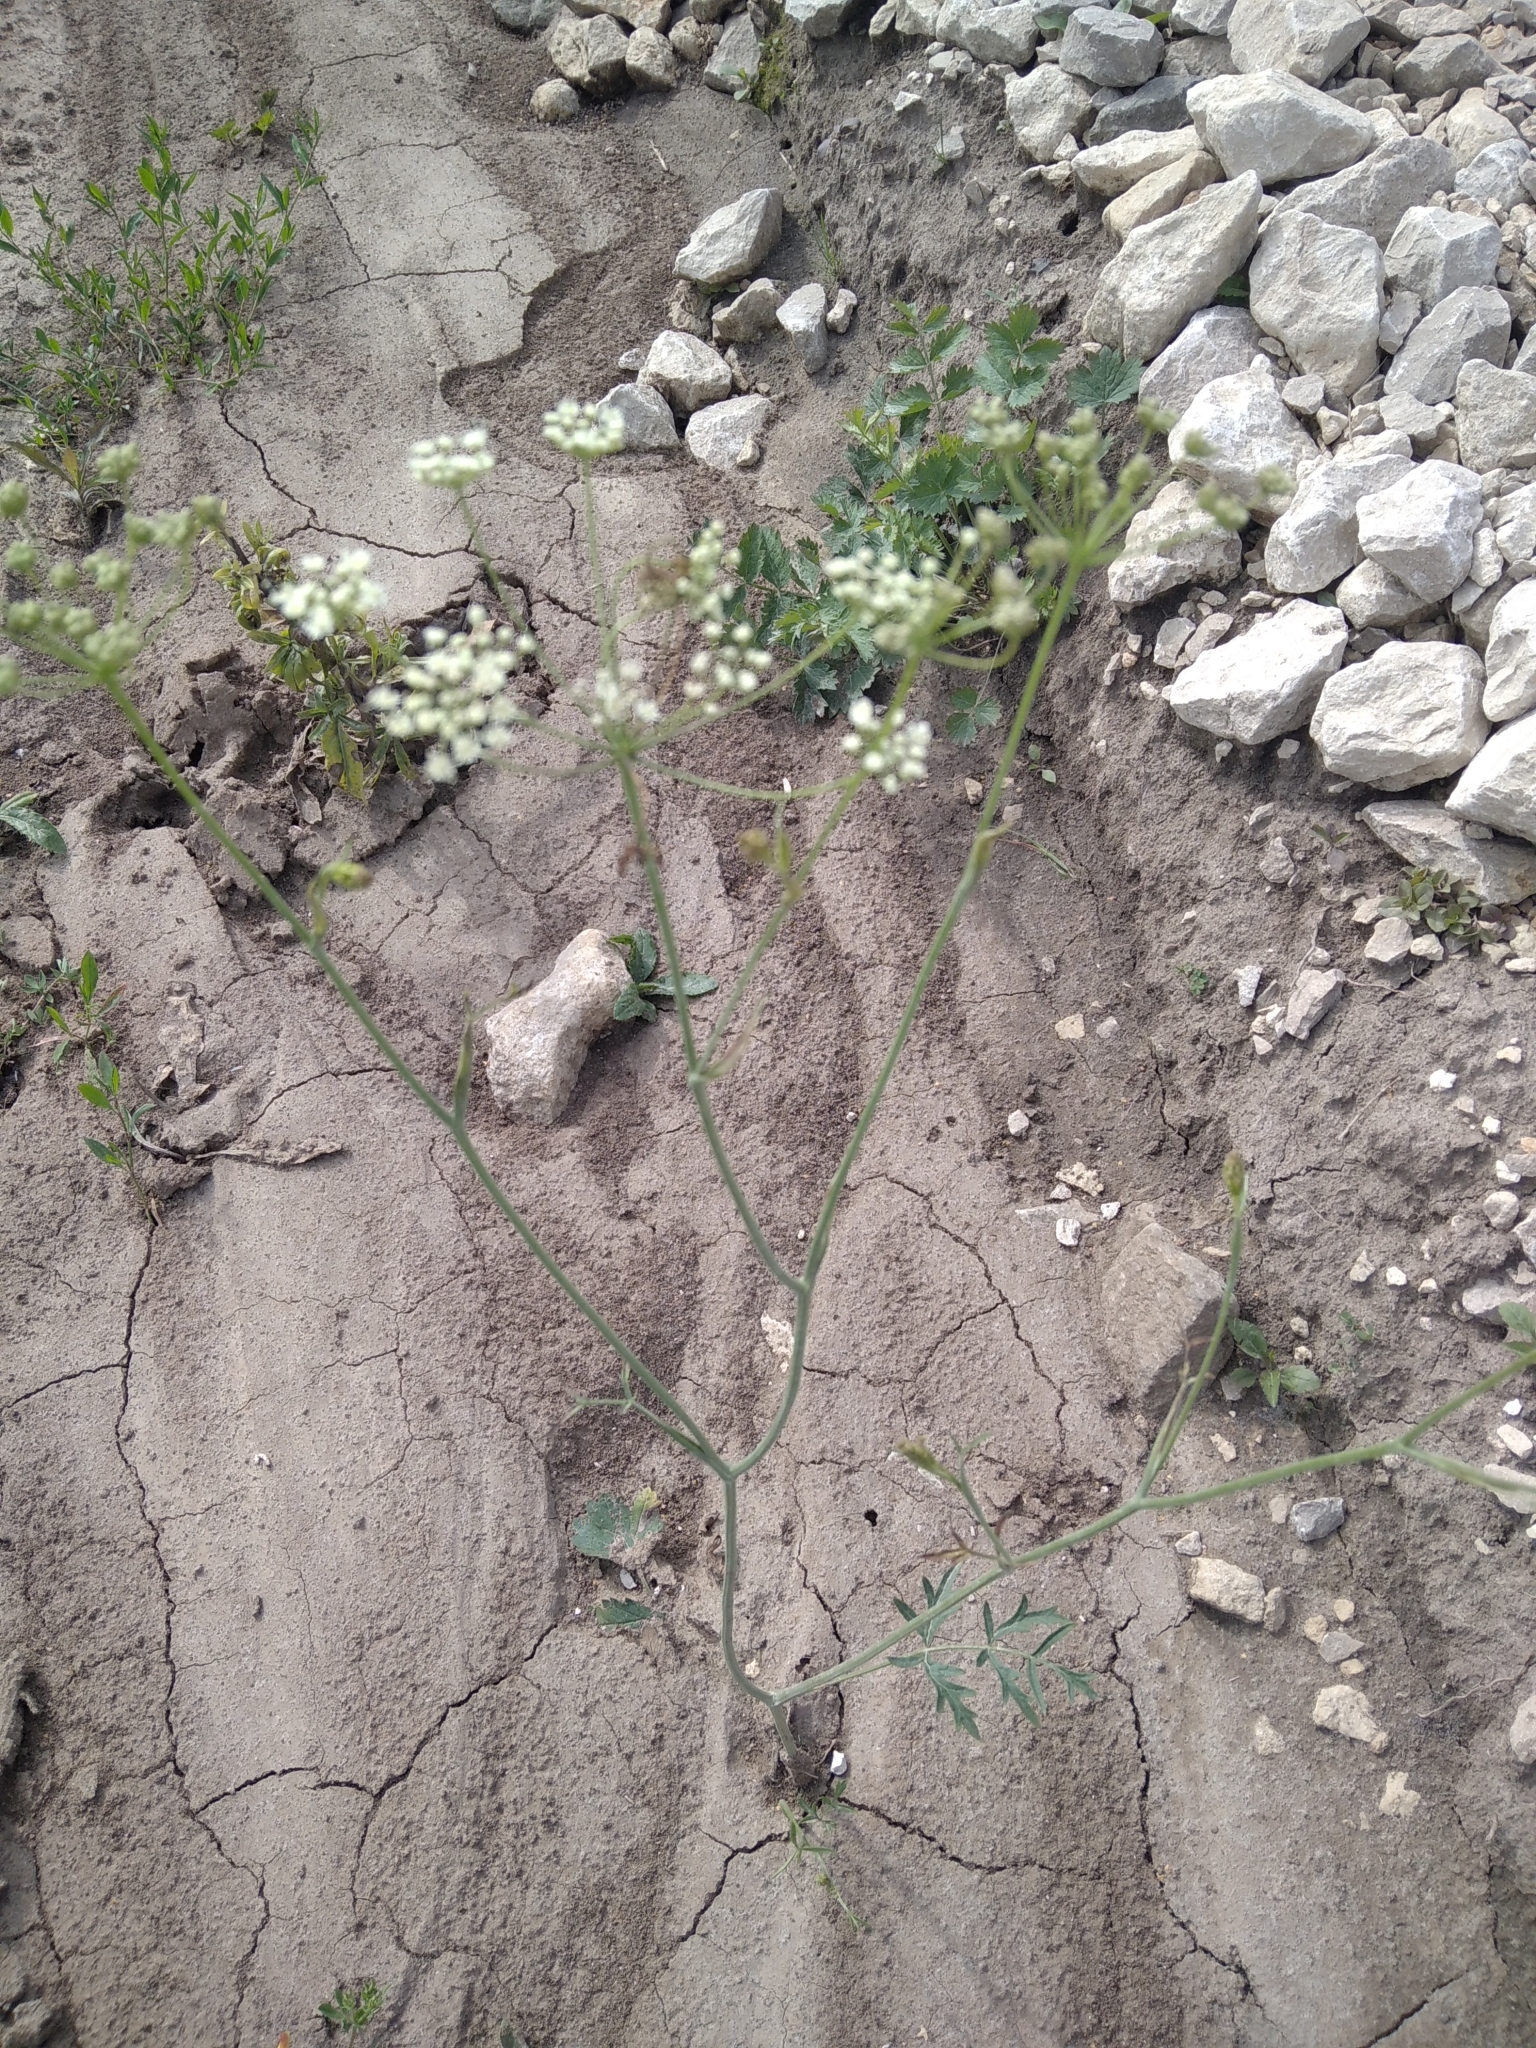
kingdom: Plantae
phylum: Tracheophyta
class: Magnoliopsida
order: Apiales
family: Apiaceae
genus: Pimpinella
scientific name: Pimpinella saxifraga
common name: Burnet-saxifrage
